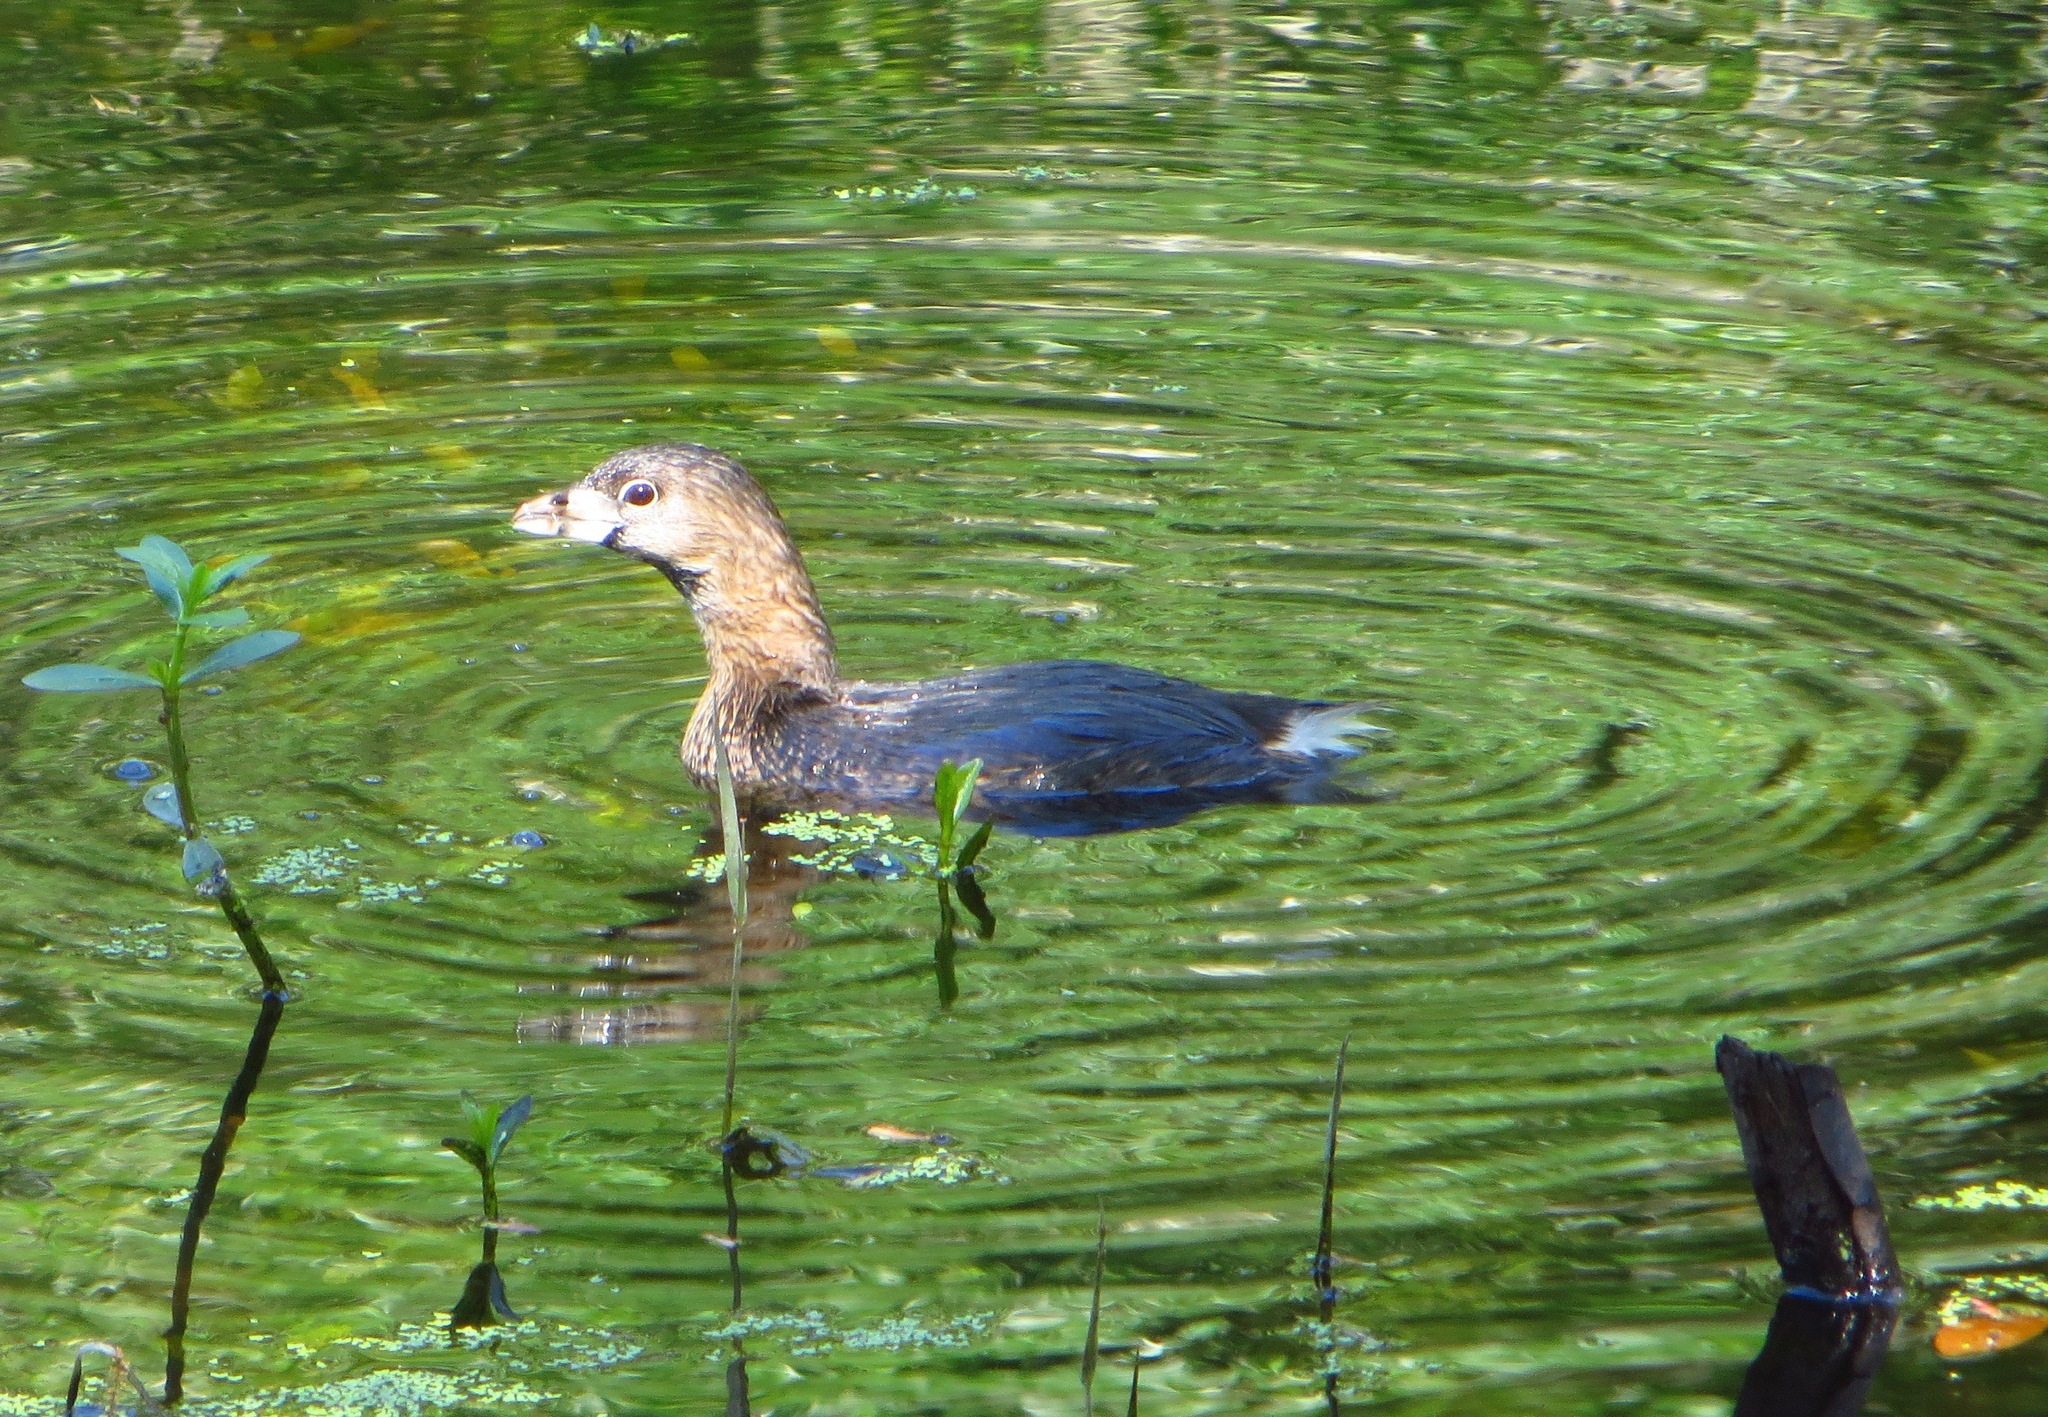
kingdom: Animalia
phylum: Chordata
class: Aves
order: Podicipediformes
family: Podicipedidae
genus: Podilymbus
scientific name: Podilymbus podiceps
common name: Pied-billed grebe
